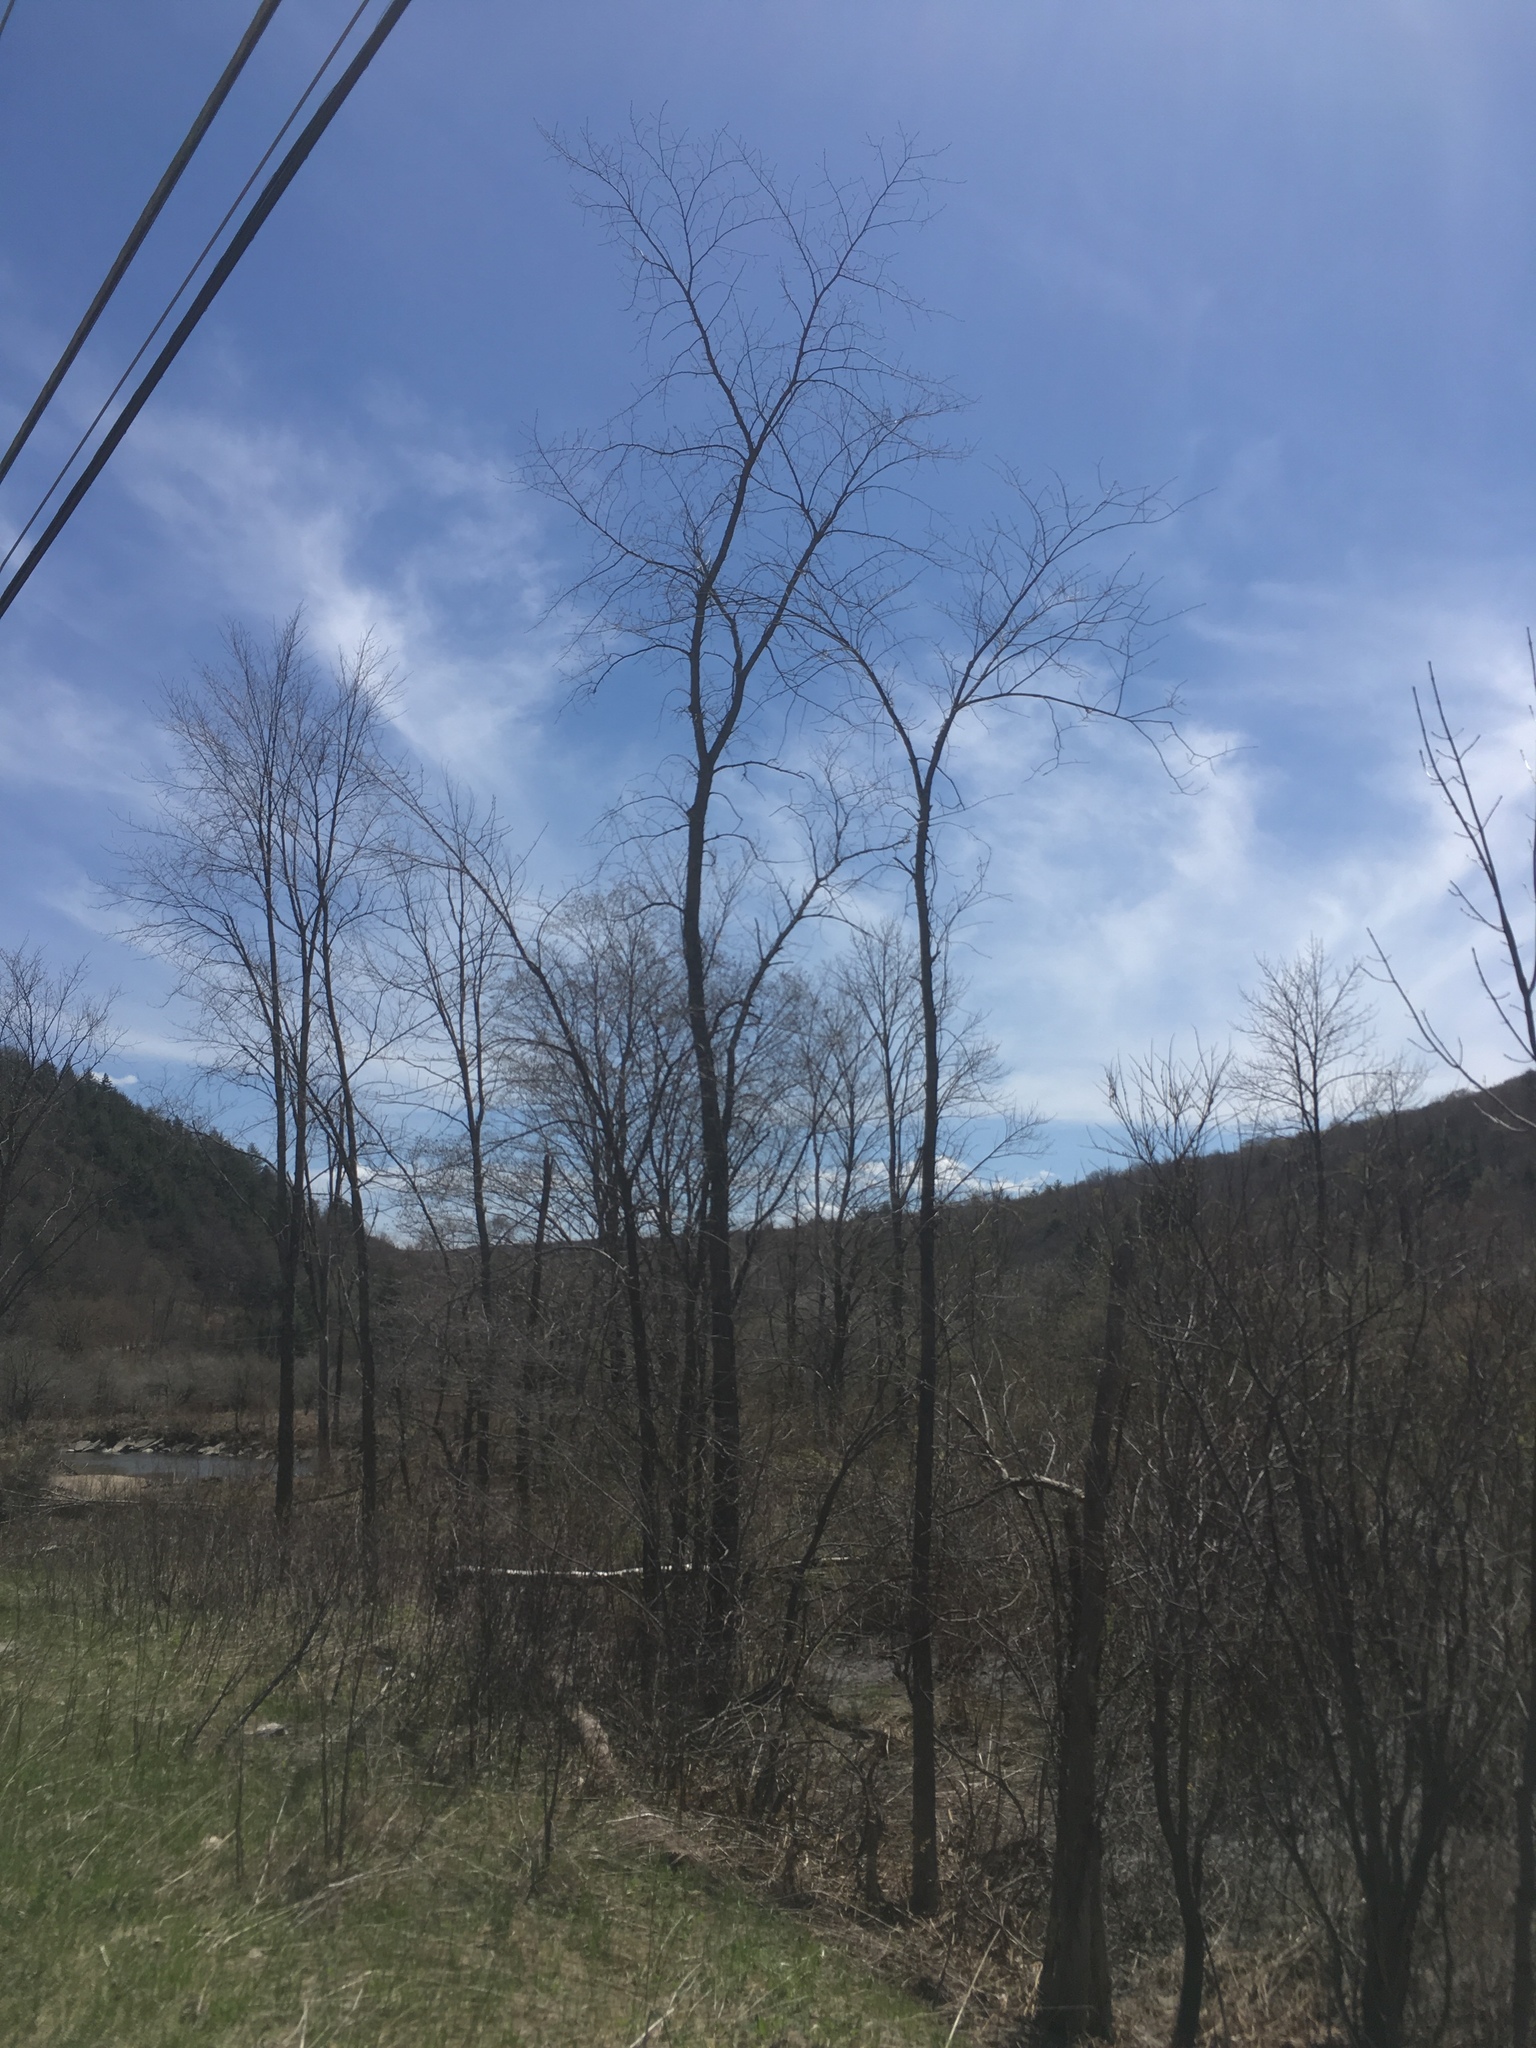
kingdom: Plantae
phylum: Tracheophyta
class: Magnoliopsida
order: Rosales
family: Ulmaceae
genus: Ulmus
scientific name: Ulmus americana
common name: American elm
